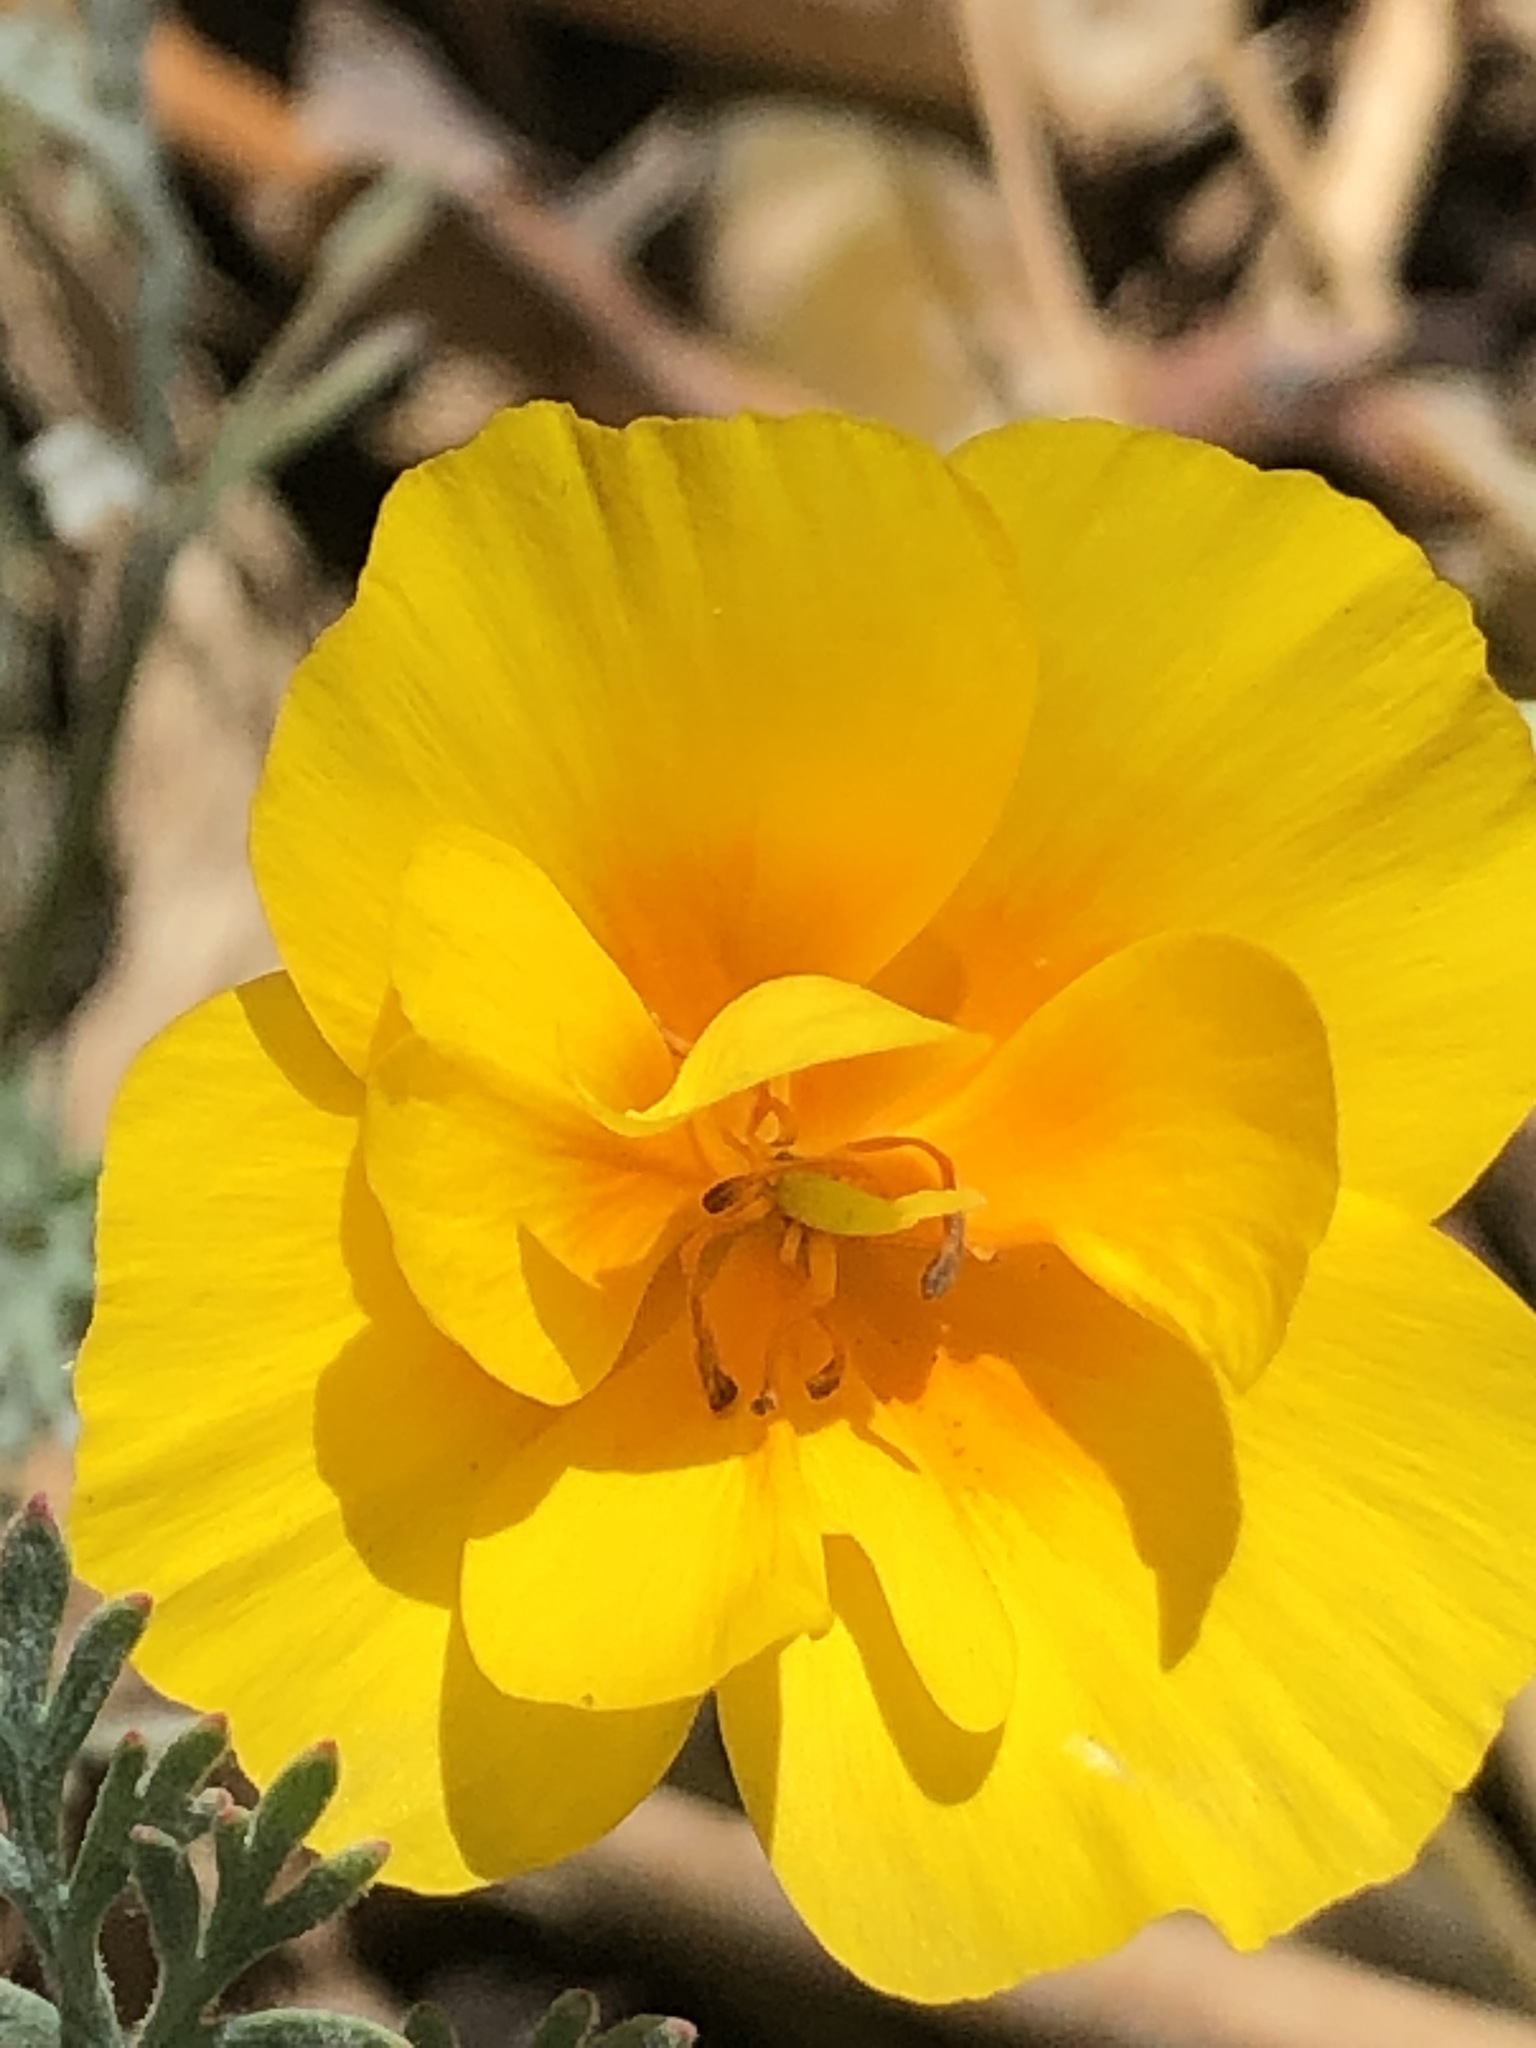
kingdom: Plantae
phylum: Tracheophyta
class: Magnoliopsida
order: Ranunculales
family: Papaveraceae
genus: Eschscholzia
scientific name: Eschscholzia californica
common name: California poppy
